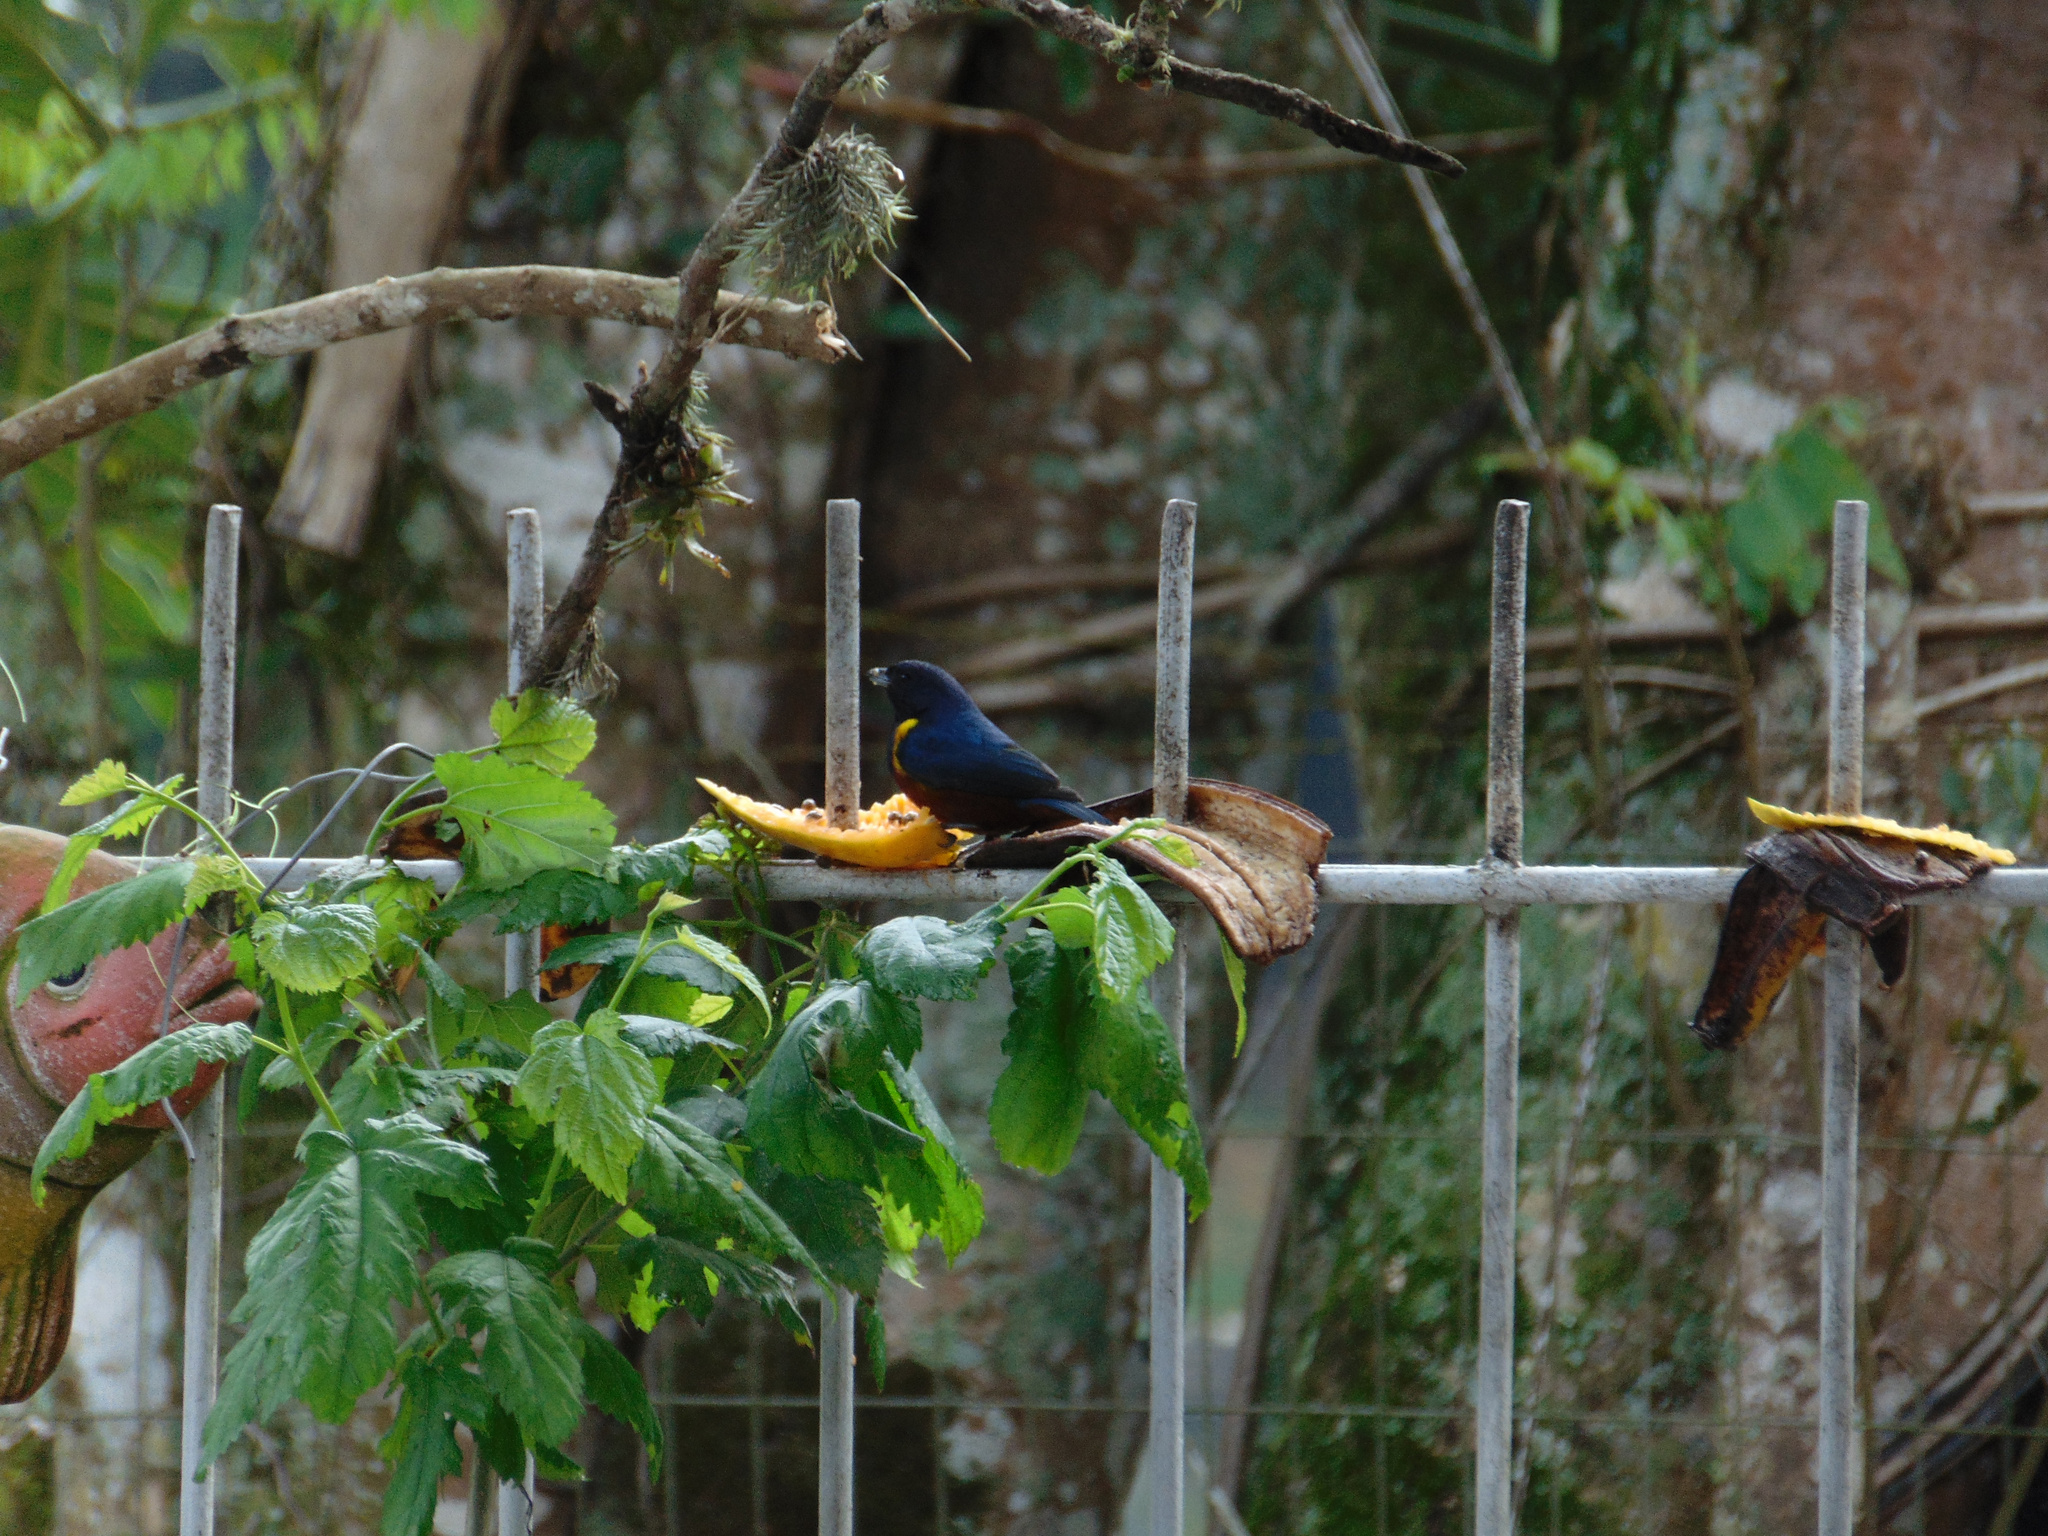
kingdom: Animalia
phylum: Chordata
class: Aves
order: Passeriformes
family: Fringillidae
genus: Euphonia
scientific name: Euphonia pectoralis
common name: Chestnut-bellied euphonia
